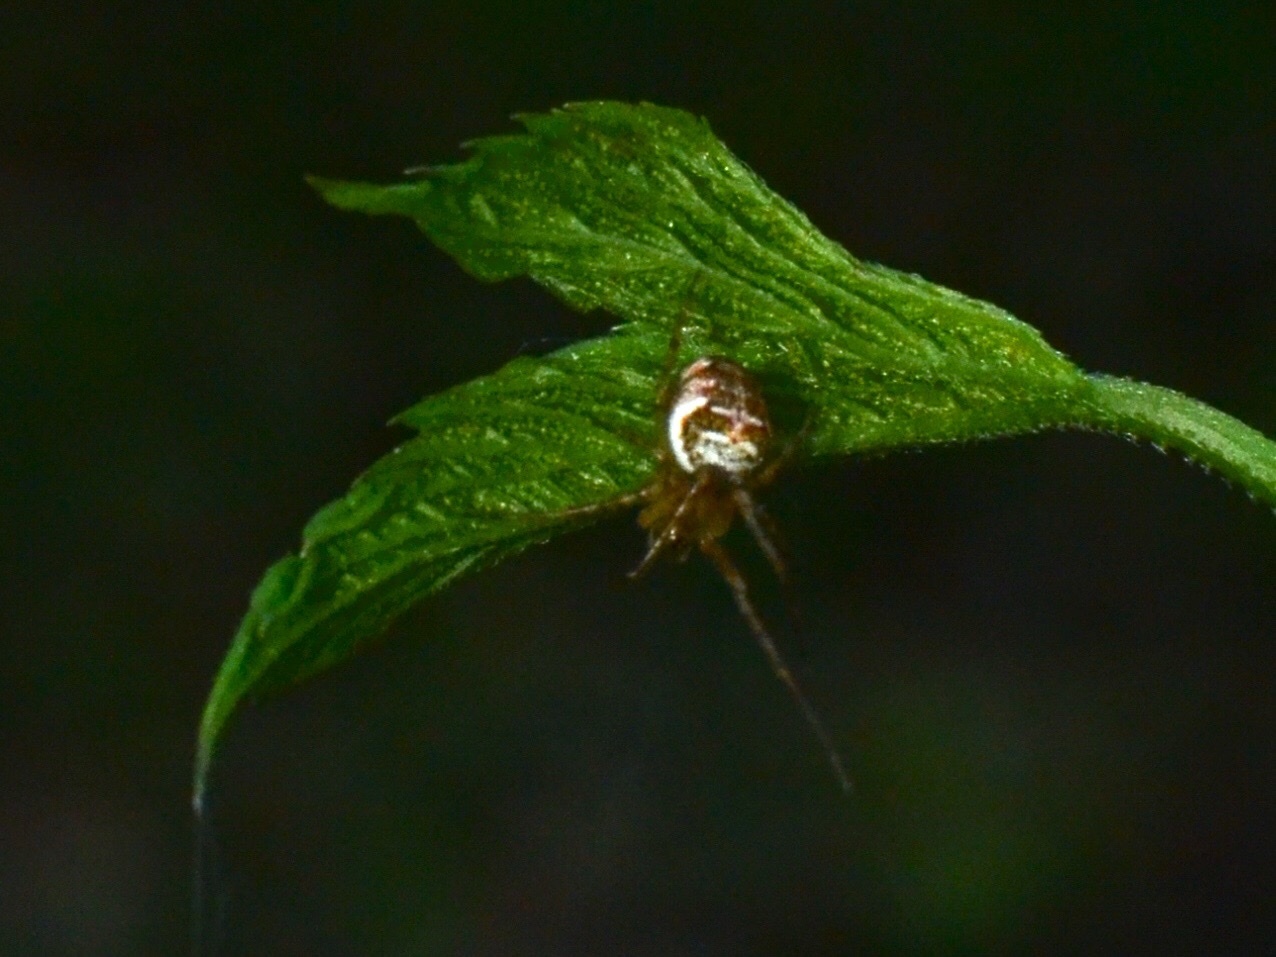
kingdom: Animalia
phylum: Arthropoda
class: Arachnida
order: Araneae
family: Tetragnathidae
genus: Metellina
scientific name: Metellina
